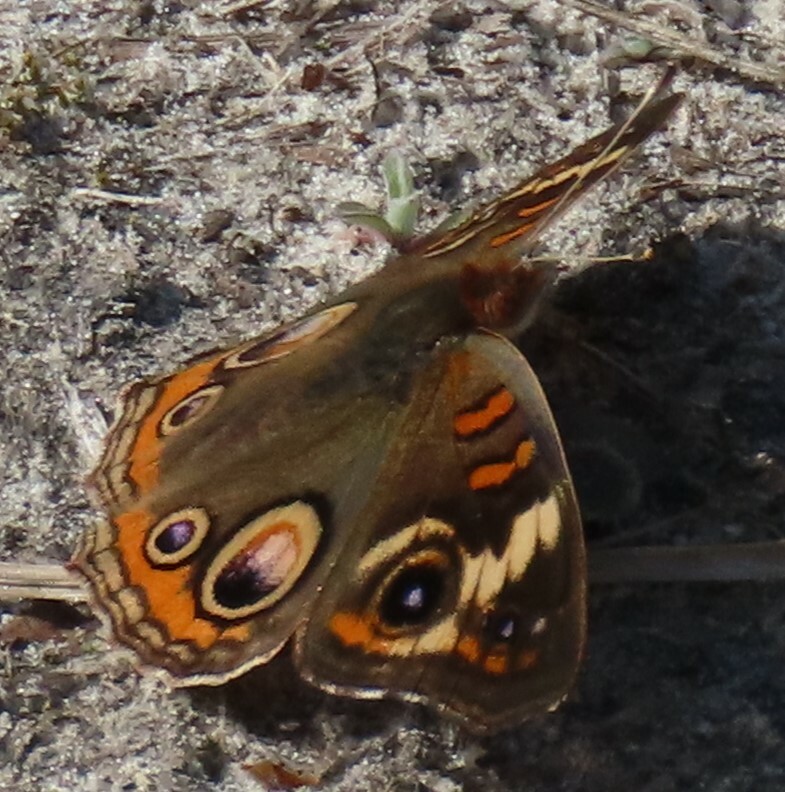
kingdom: Animalia
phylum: Arthropoda
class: Insecta
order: Lepidoptera
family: Nymphalidae
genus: Junonia
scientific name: Junonia coenia
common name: Common buckeye
